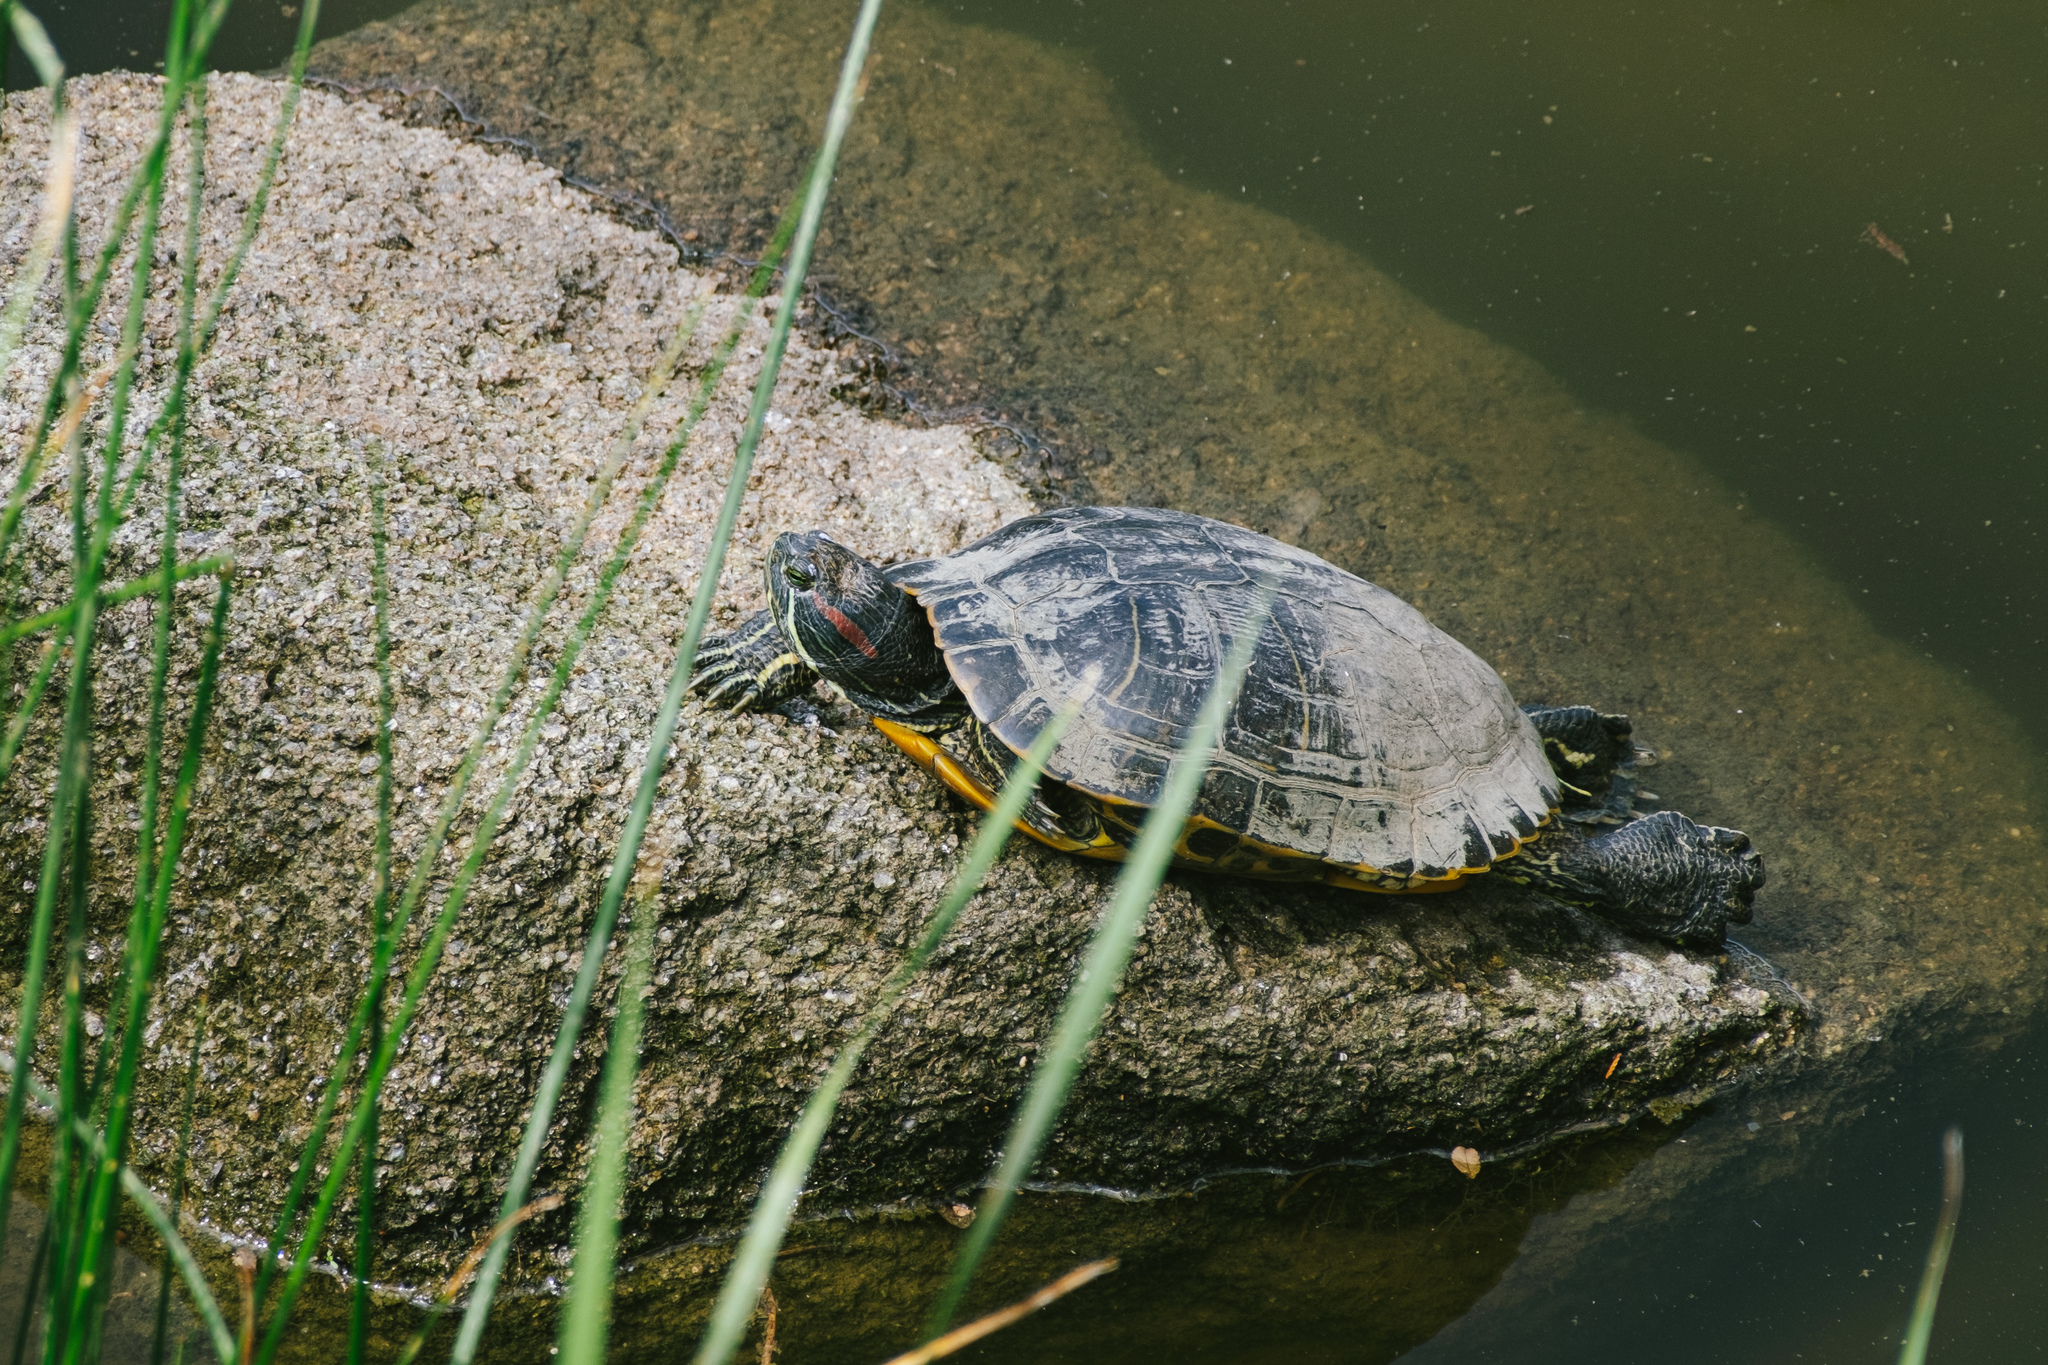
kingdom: Animalia
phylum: Chordata
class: Testudines
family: Emydidae
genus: Trachemys
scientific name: Trachemys scripta
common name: Slider
